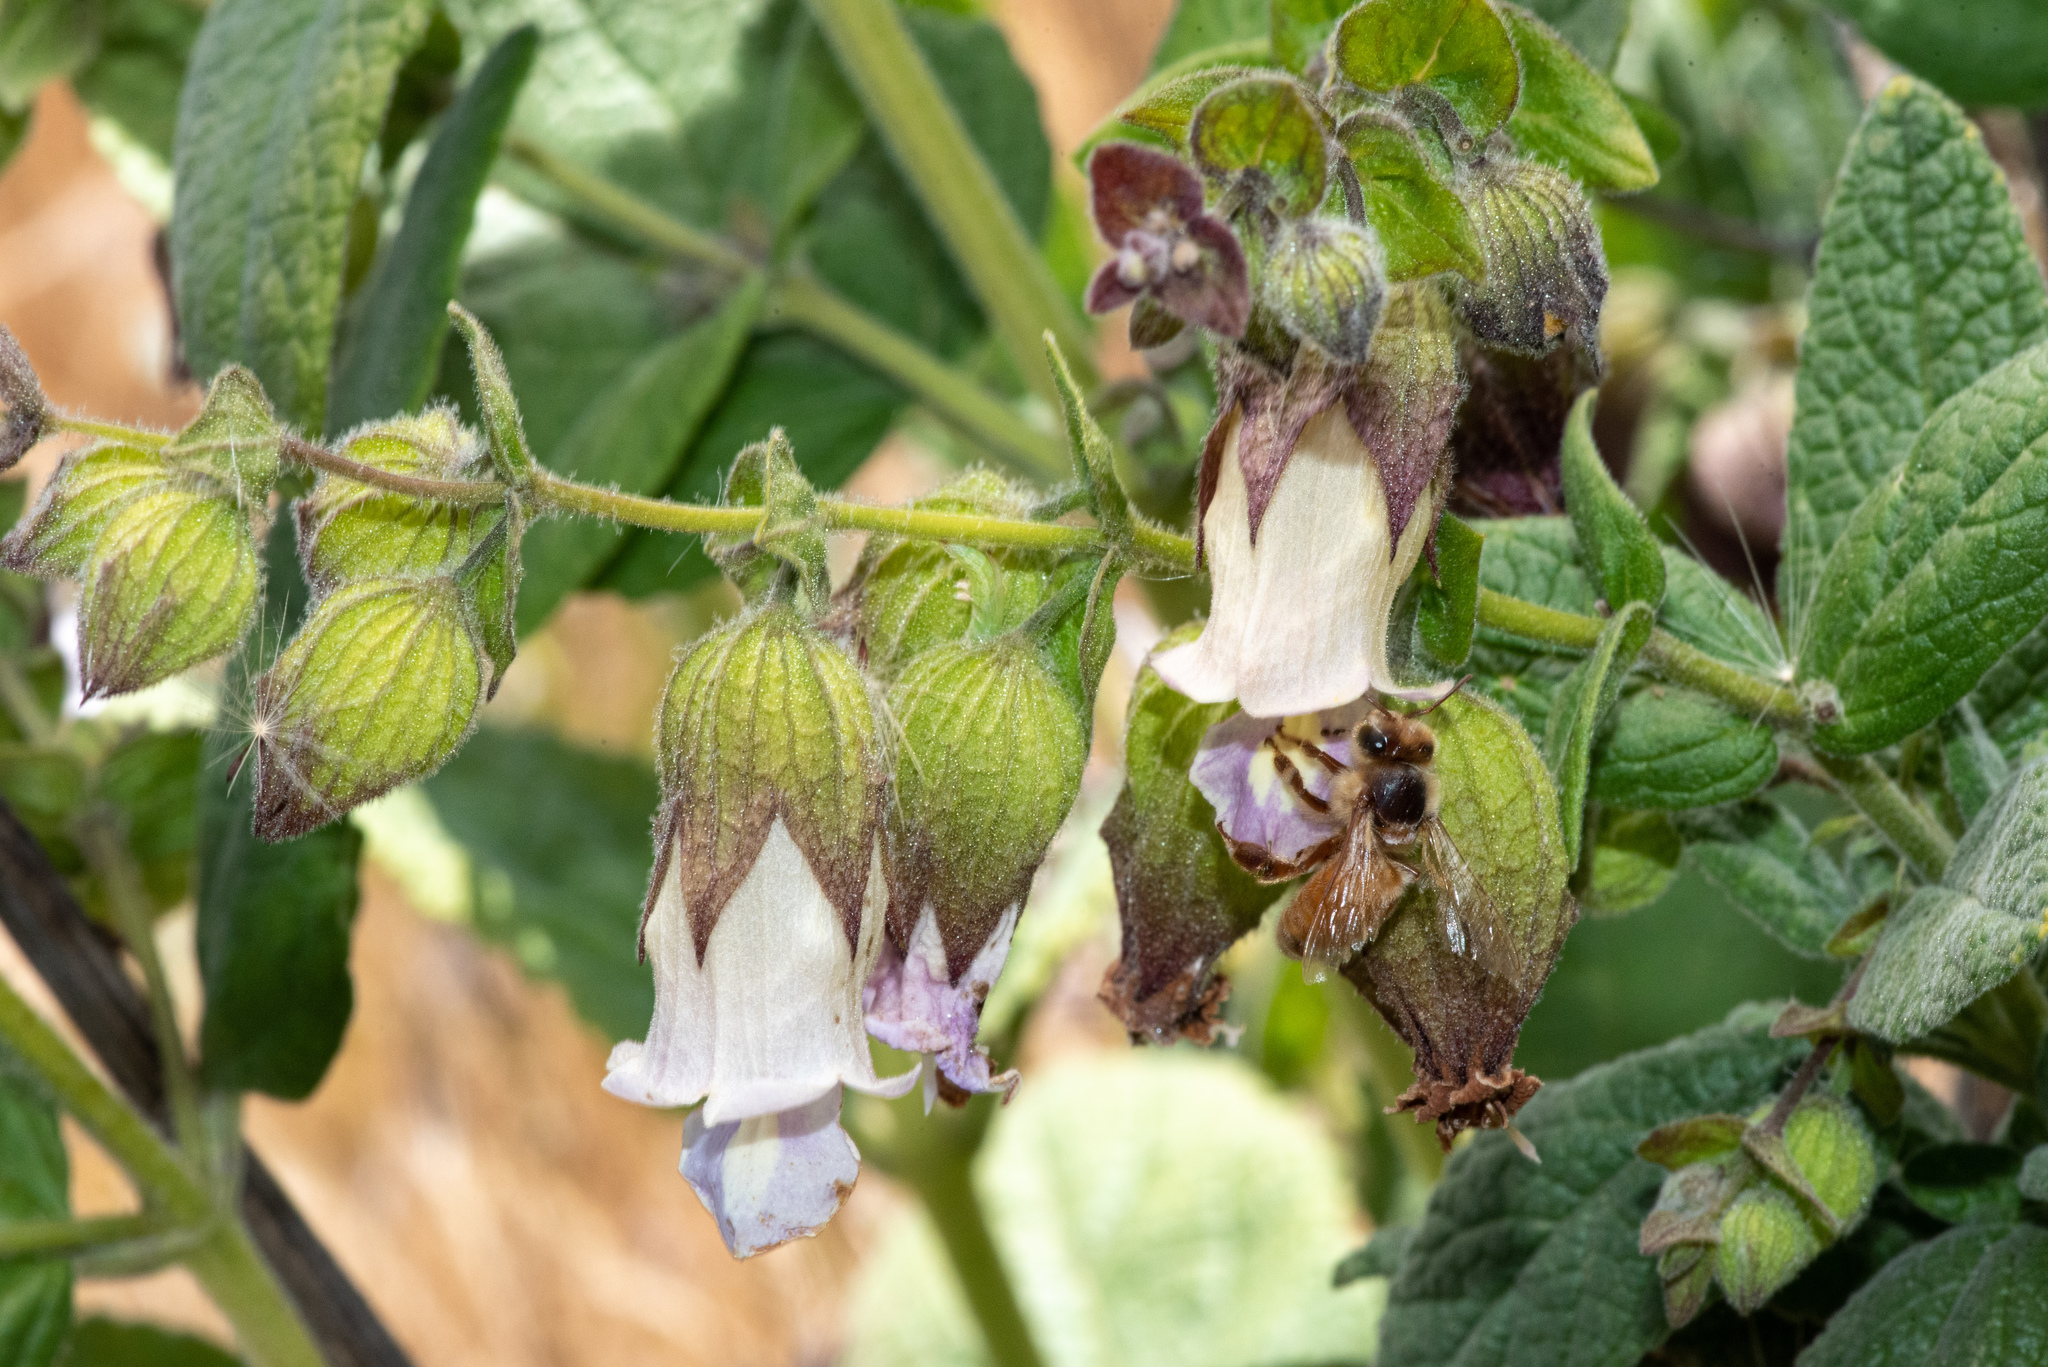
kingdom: Plantae
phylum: Tracheophyta
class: Magnoliopsida
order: Lamiales
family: Lamiaceae
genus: Lepechinia
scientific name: Lepechinia calycina
